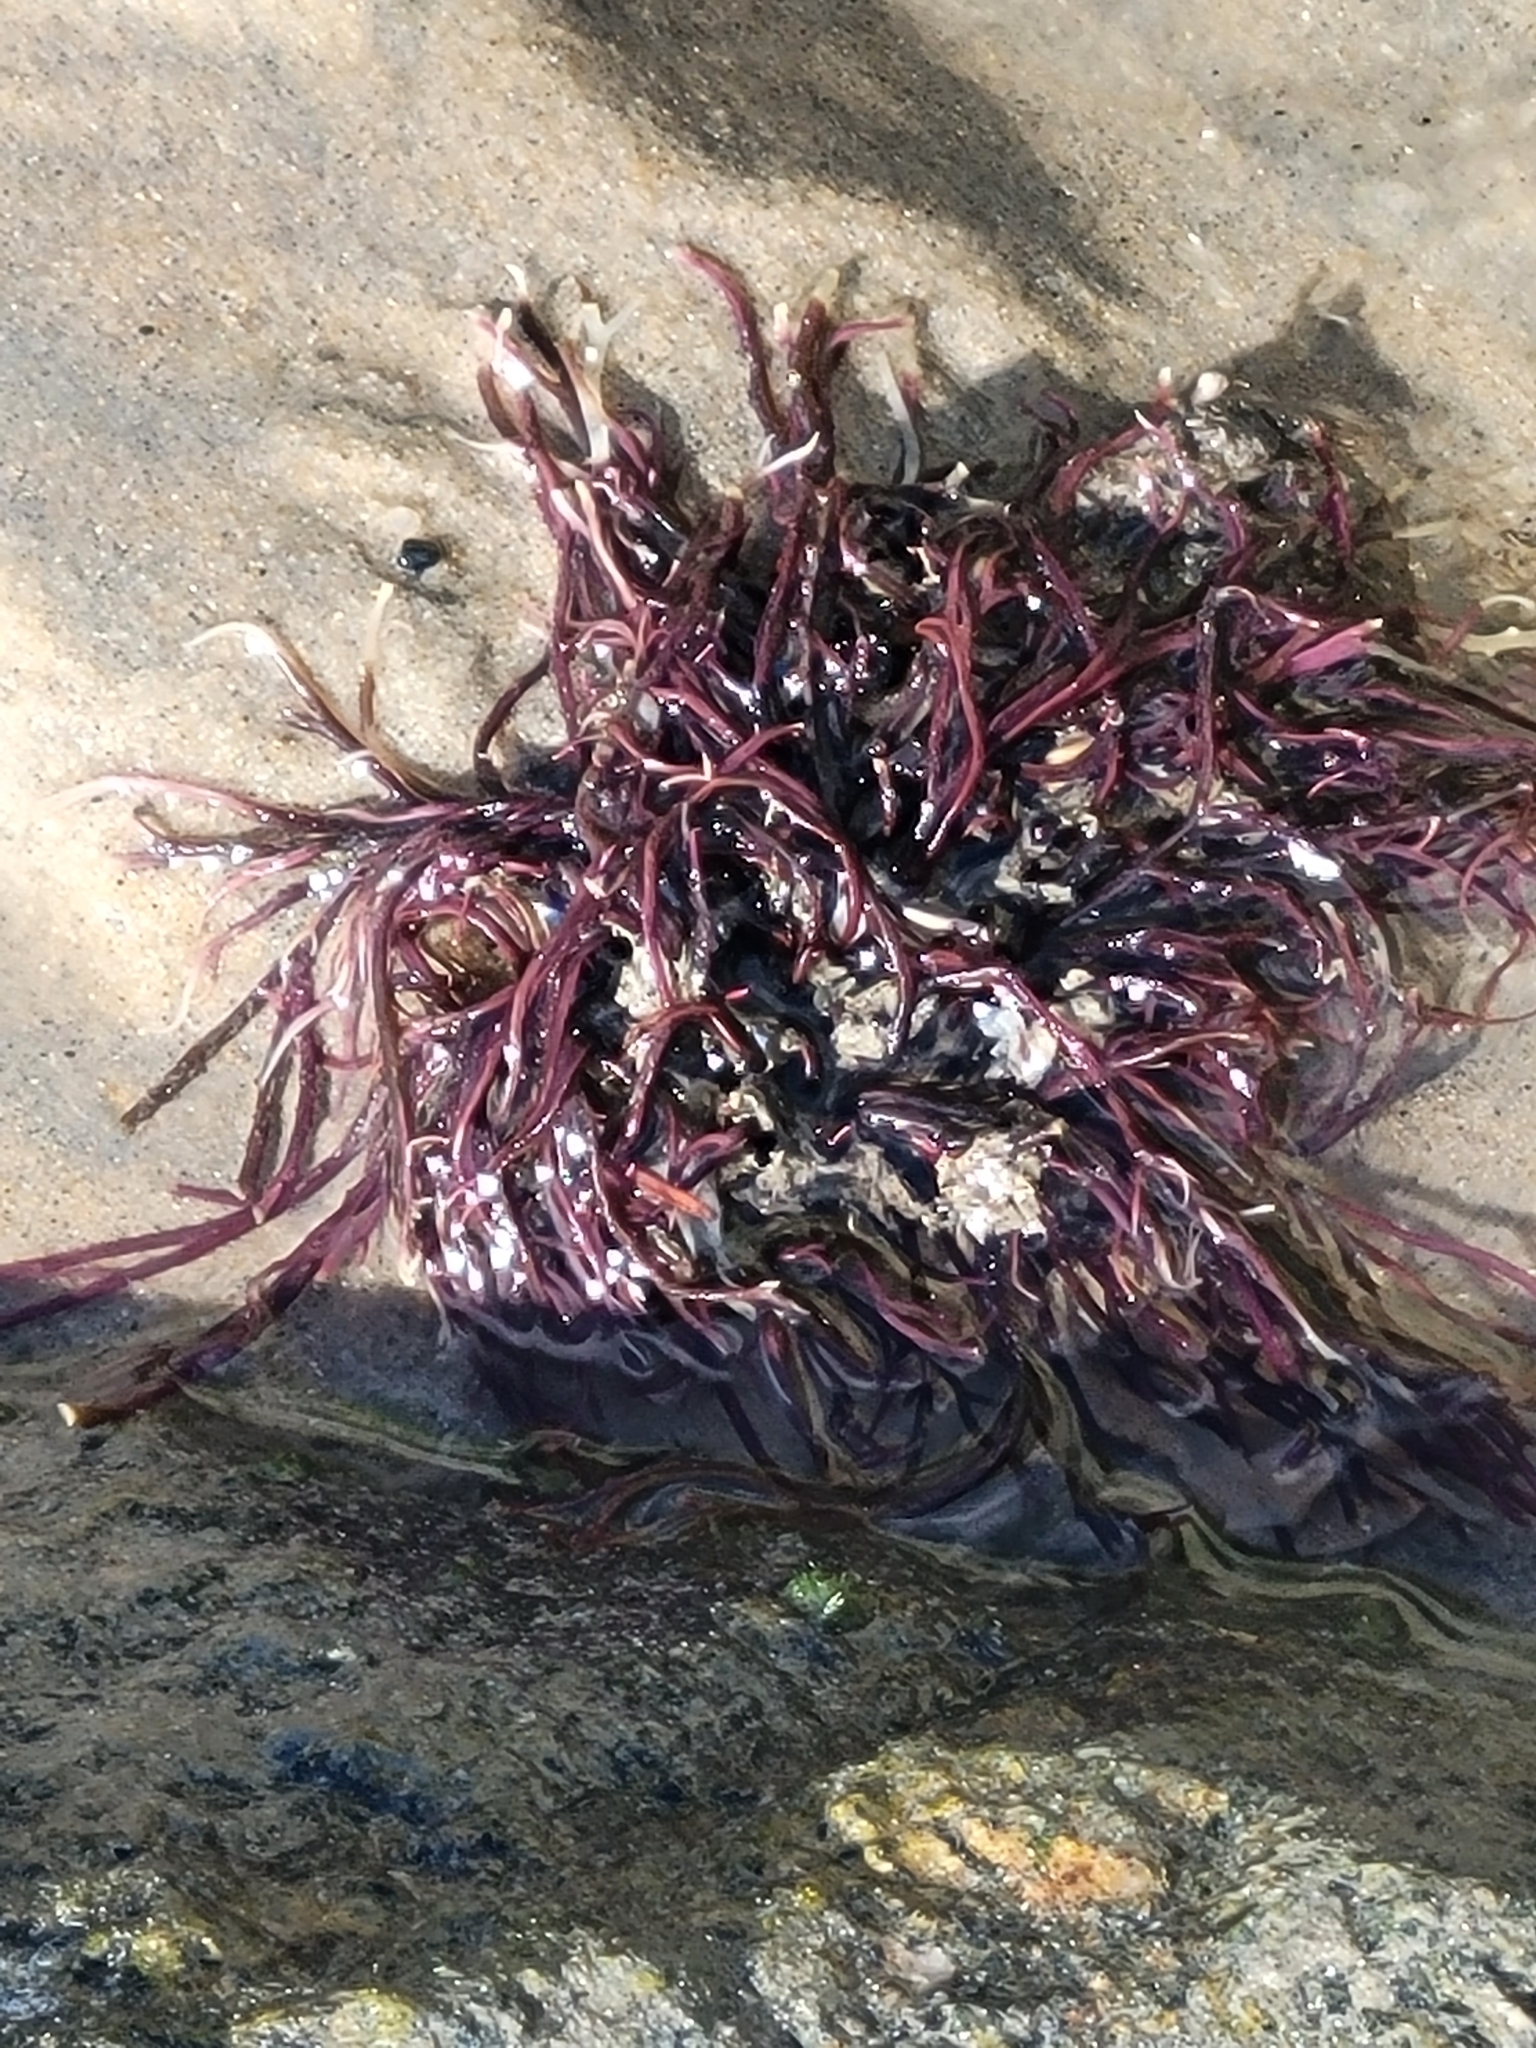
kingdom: Plantae
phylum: Rhodophyta
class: Florideophyceae
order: Gigartinales
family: Solieriaceae
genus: Sarcodiotheca
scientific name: Sarcodiotheca gaudichaudii
